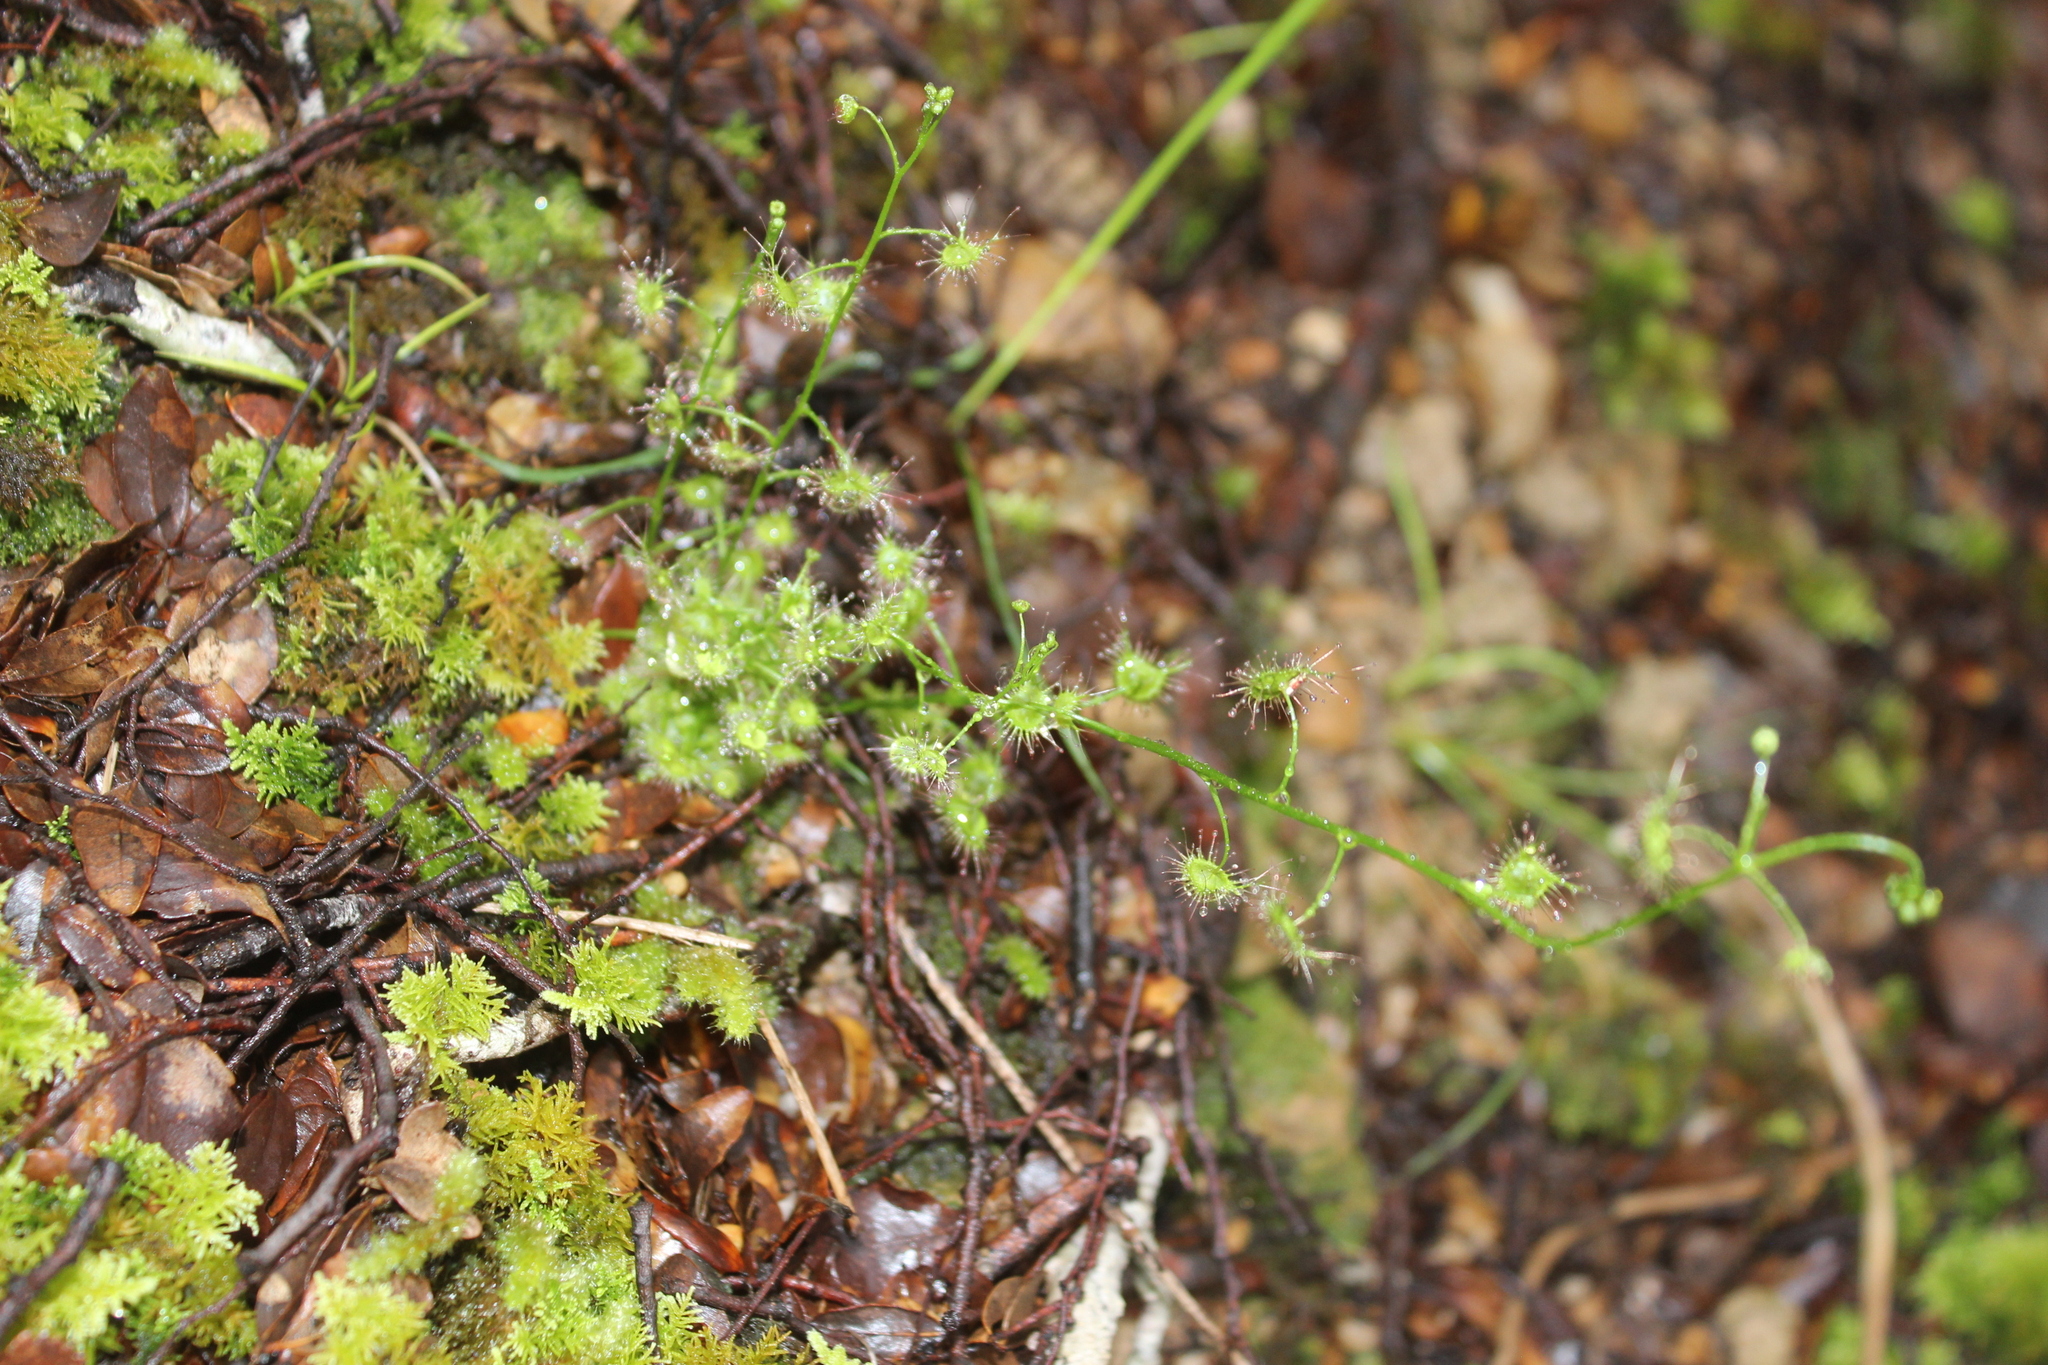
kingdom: Plantae
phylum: Tracheophyta
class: Magnoliopsida
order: Caryophyllales
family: Droseraceae
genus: Drosera
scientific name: Drosera peltata
